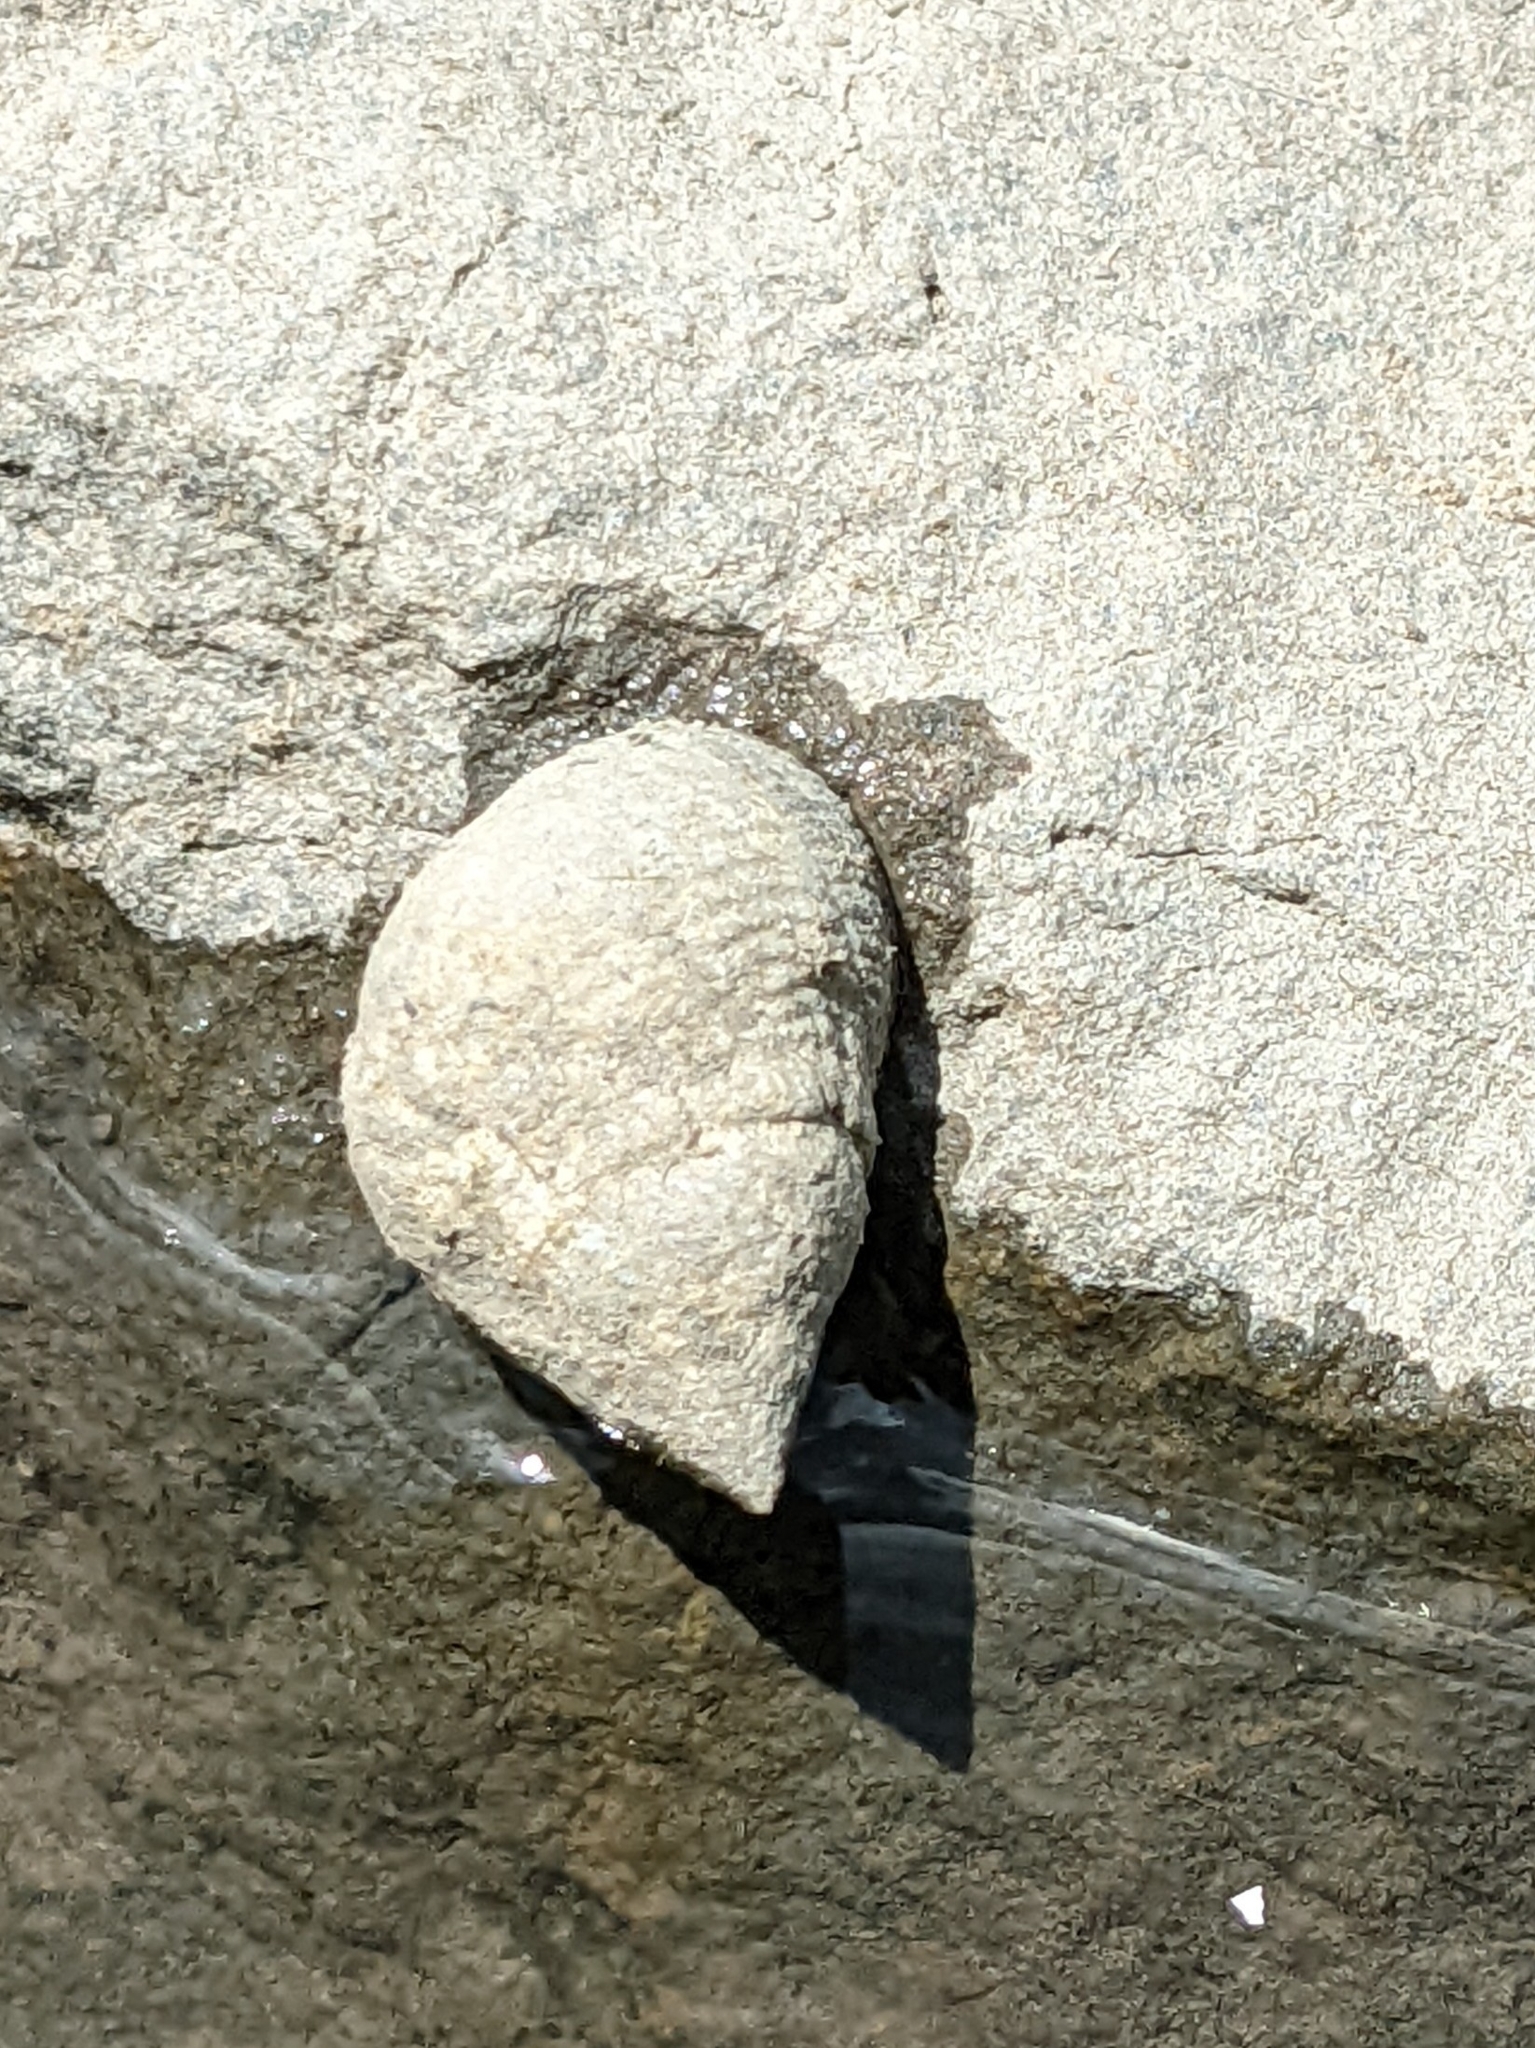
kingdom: Animalia
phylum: Mollusca
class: Gastropoda
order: Littorinimorpha
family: Littorinidae
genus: Littoraria
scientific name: Littoraria irrorata
